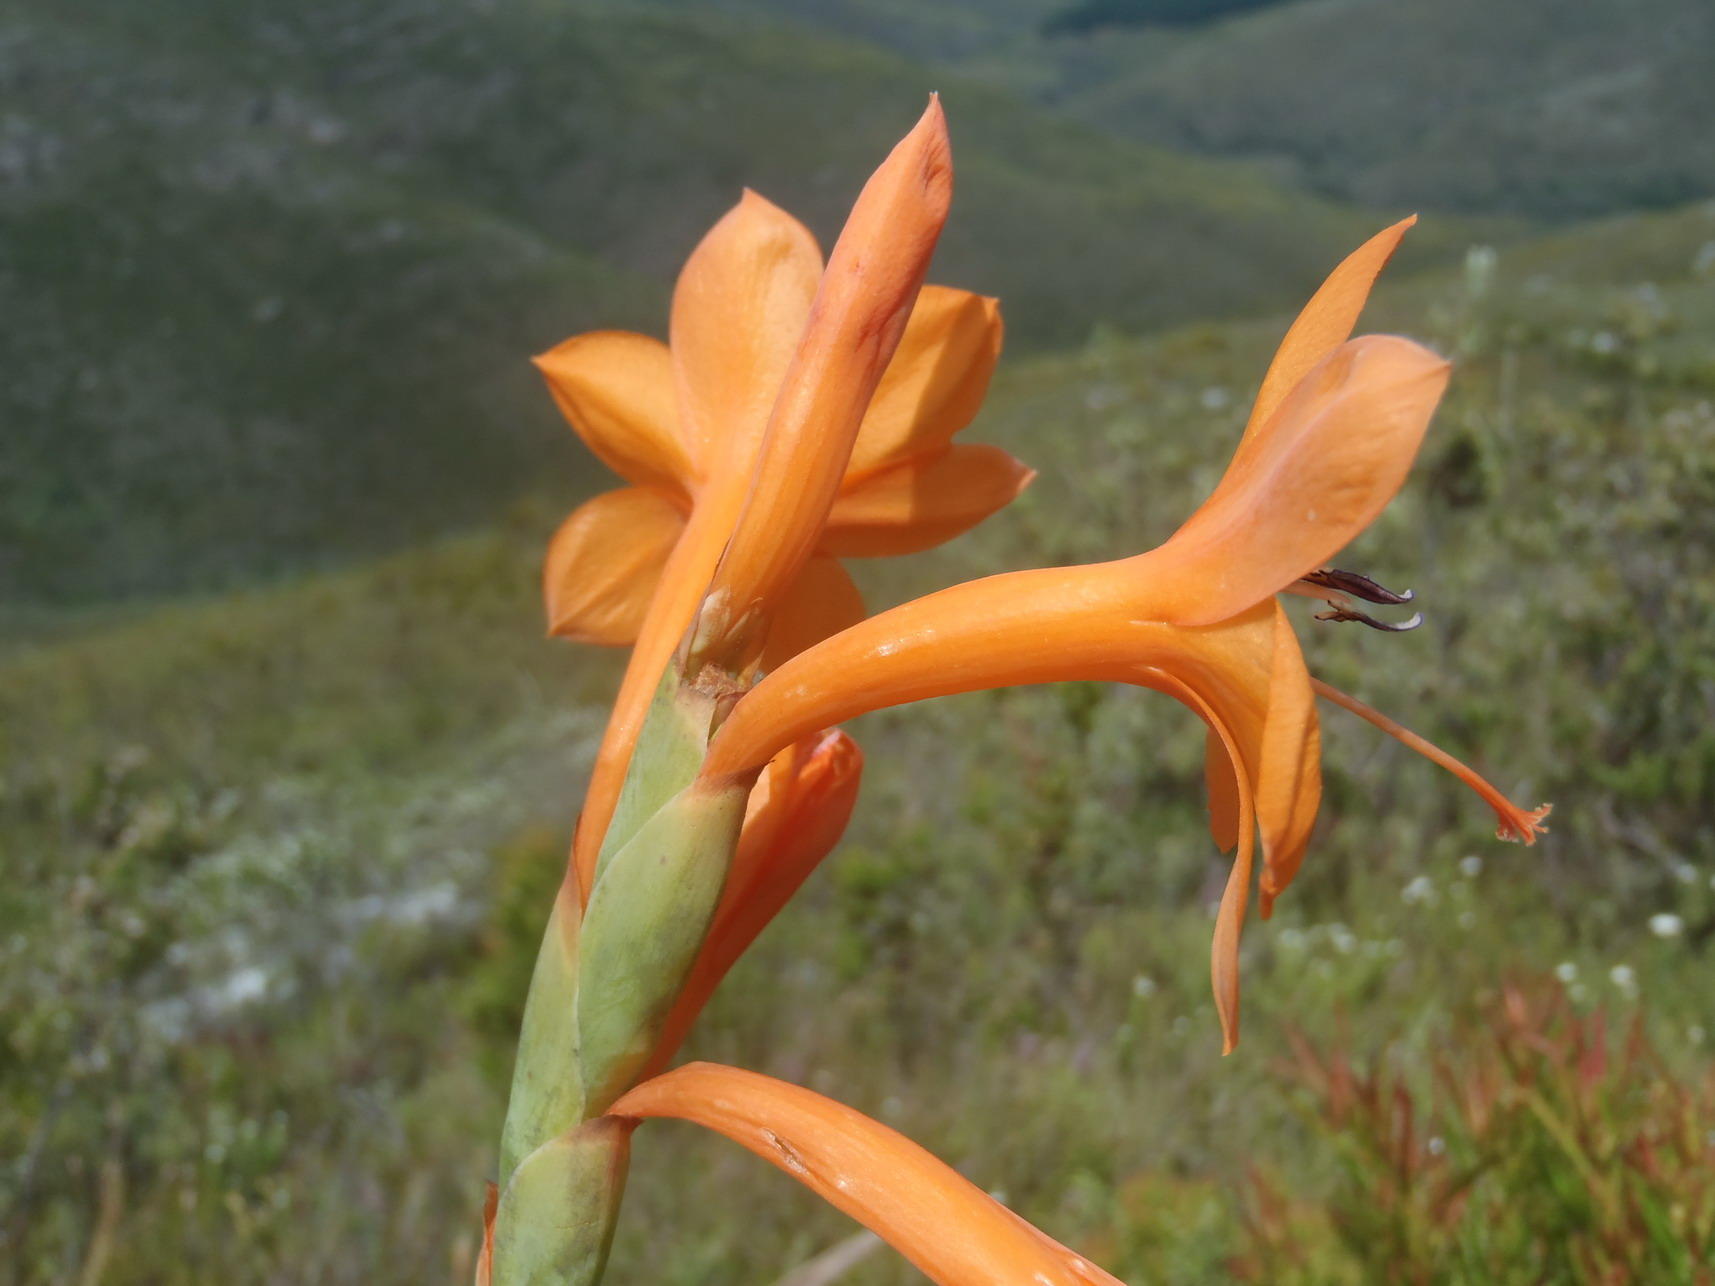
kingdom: Plantae
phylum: Tracheophyta
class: Liliopsida
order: Asparagales
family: Iridaceae
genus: Watsonia
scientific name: Watsonia pillansii
